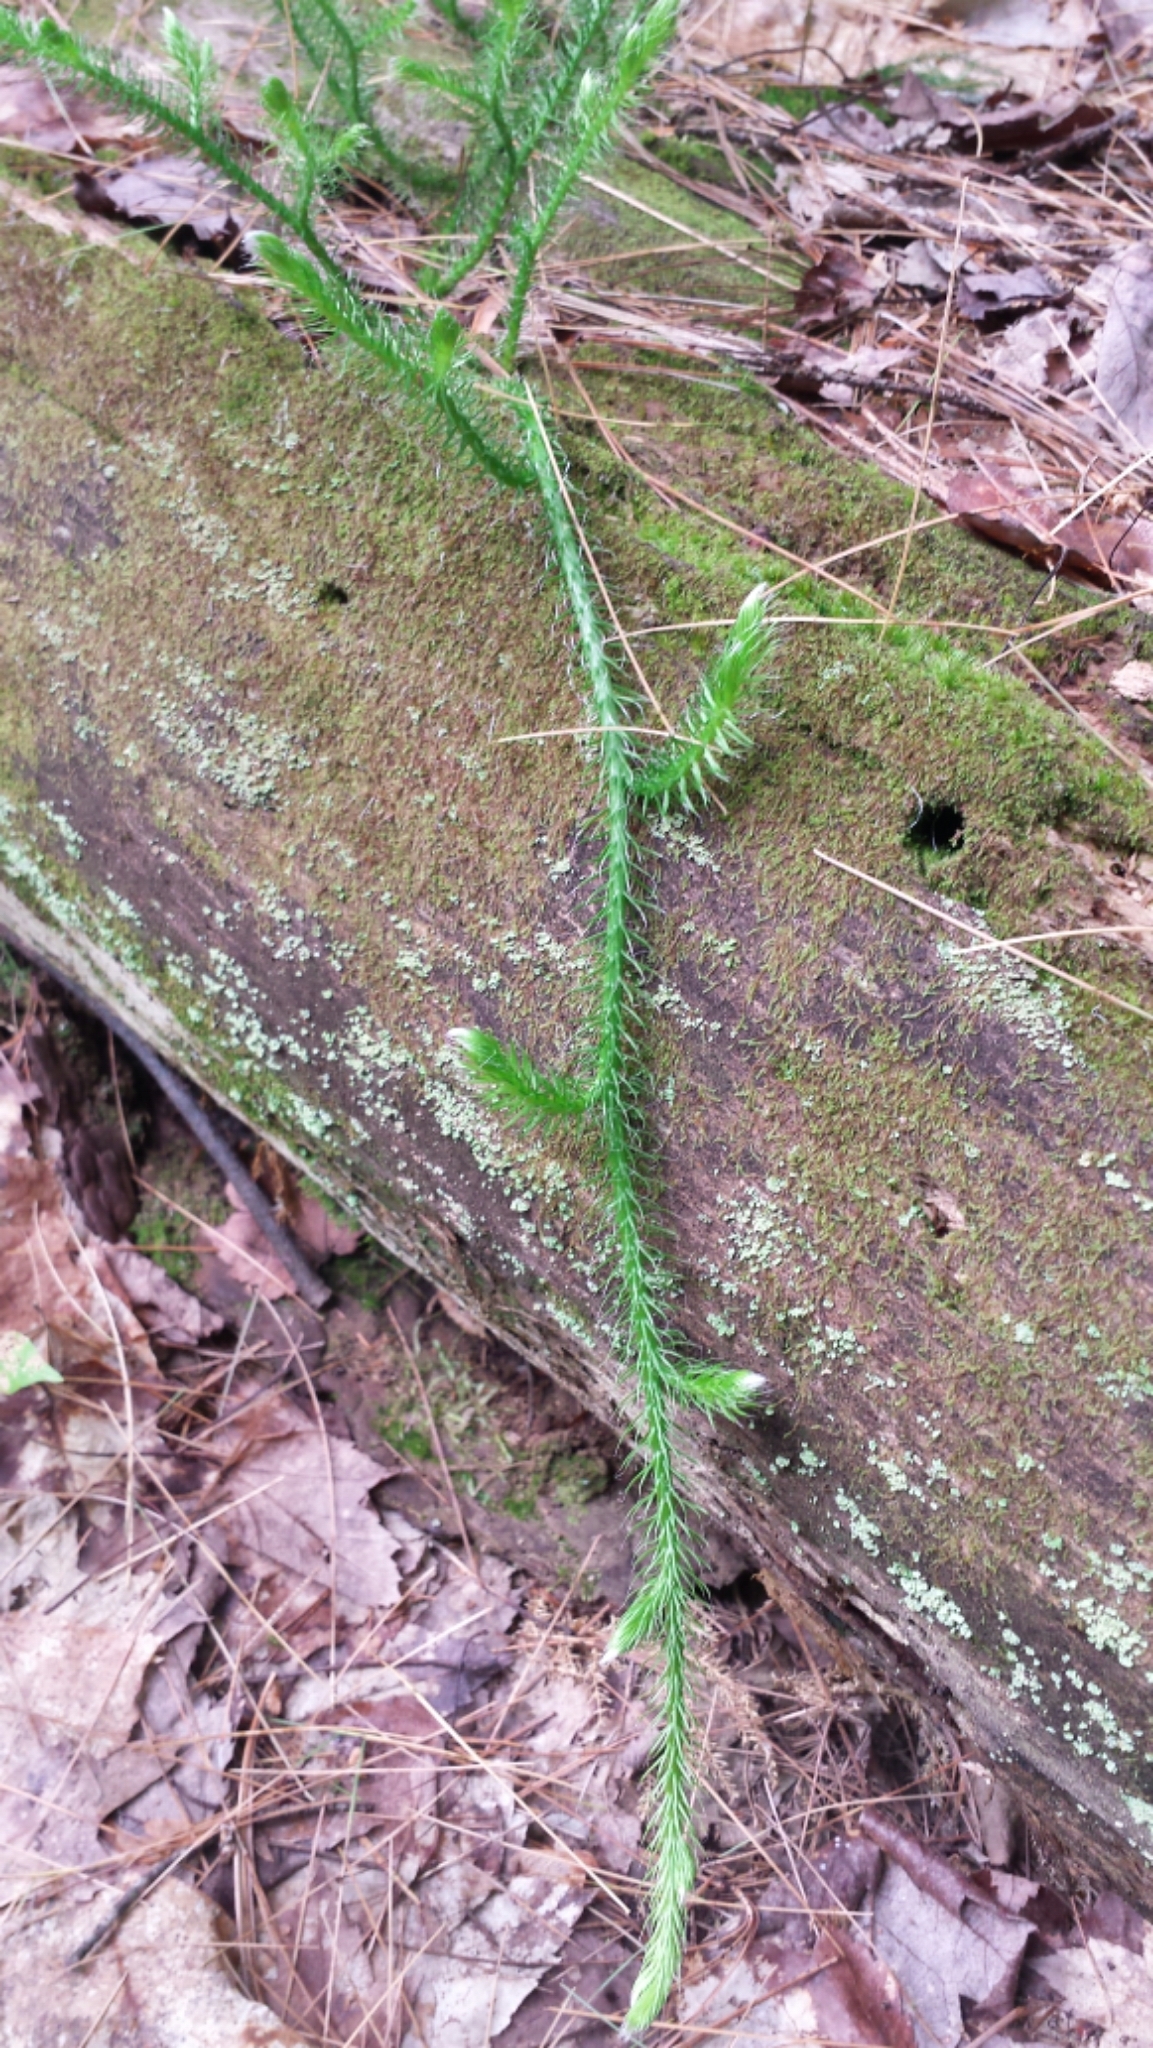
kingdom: Plantae
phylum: Tracheophyta
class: Lycopodiopsida
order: Lycopodiales
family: Lycopodiaceae
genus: Lycopodium
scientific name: Lycopodium clavatum
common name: Stag's-horn clubmoss
